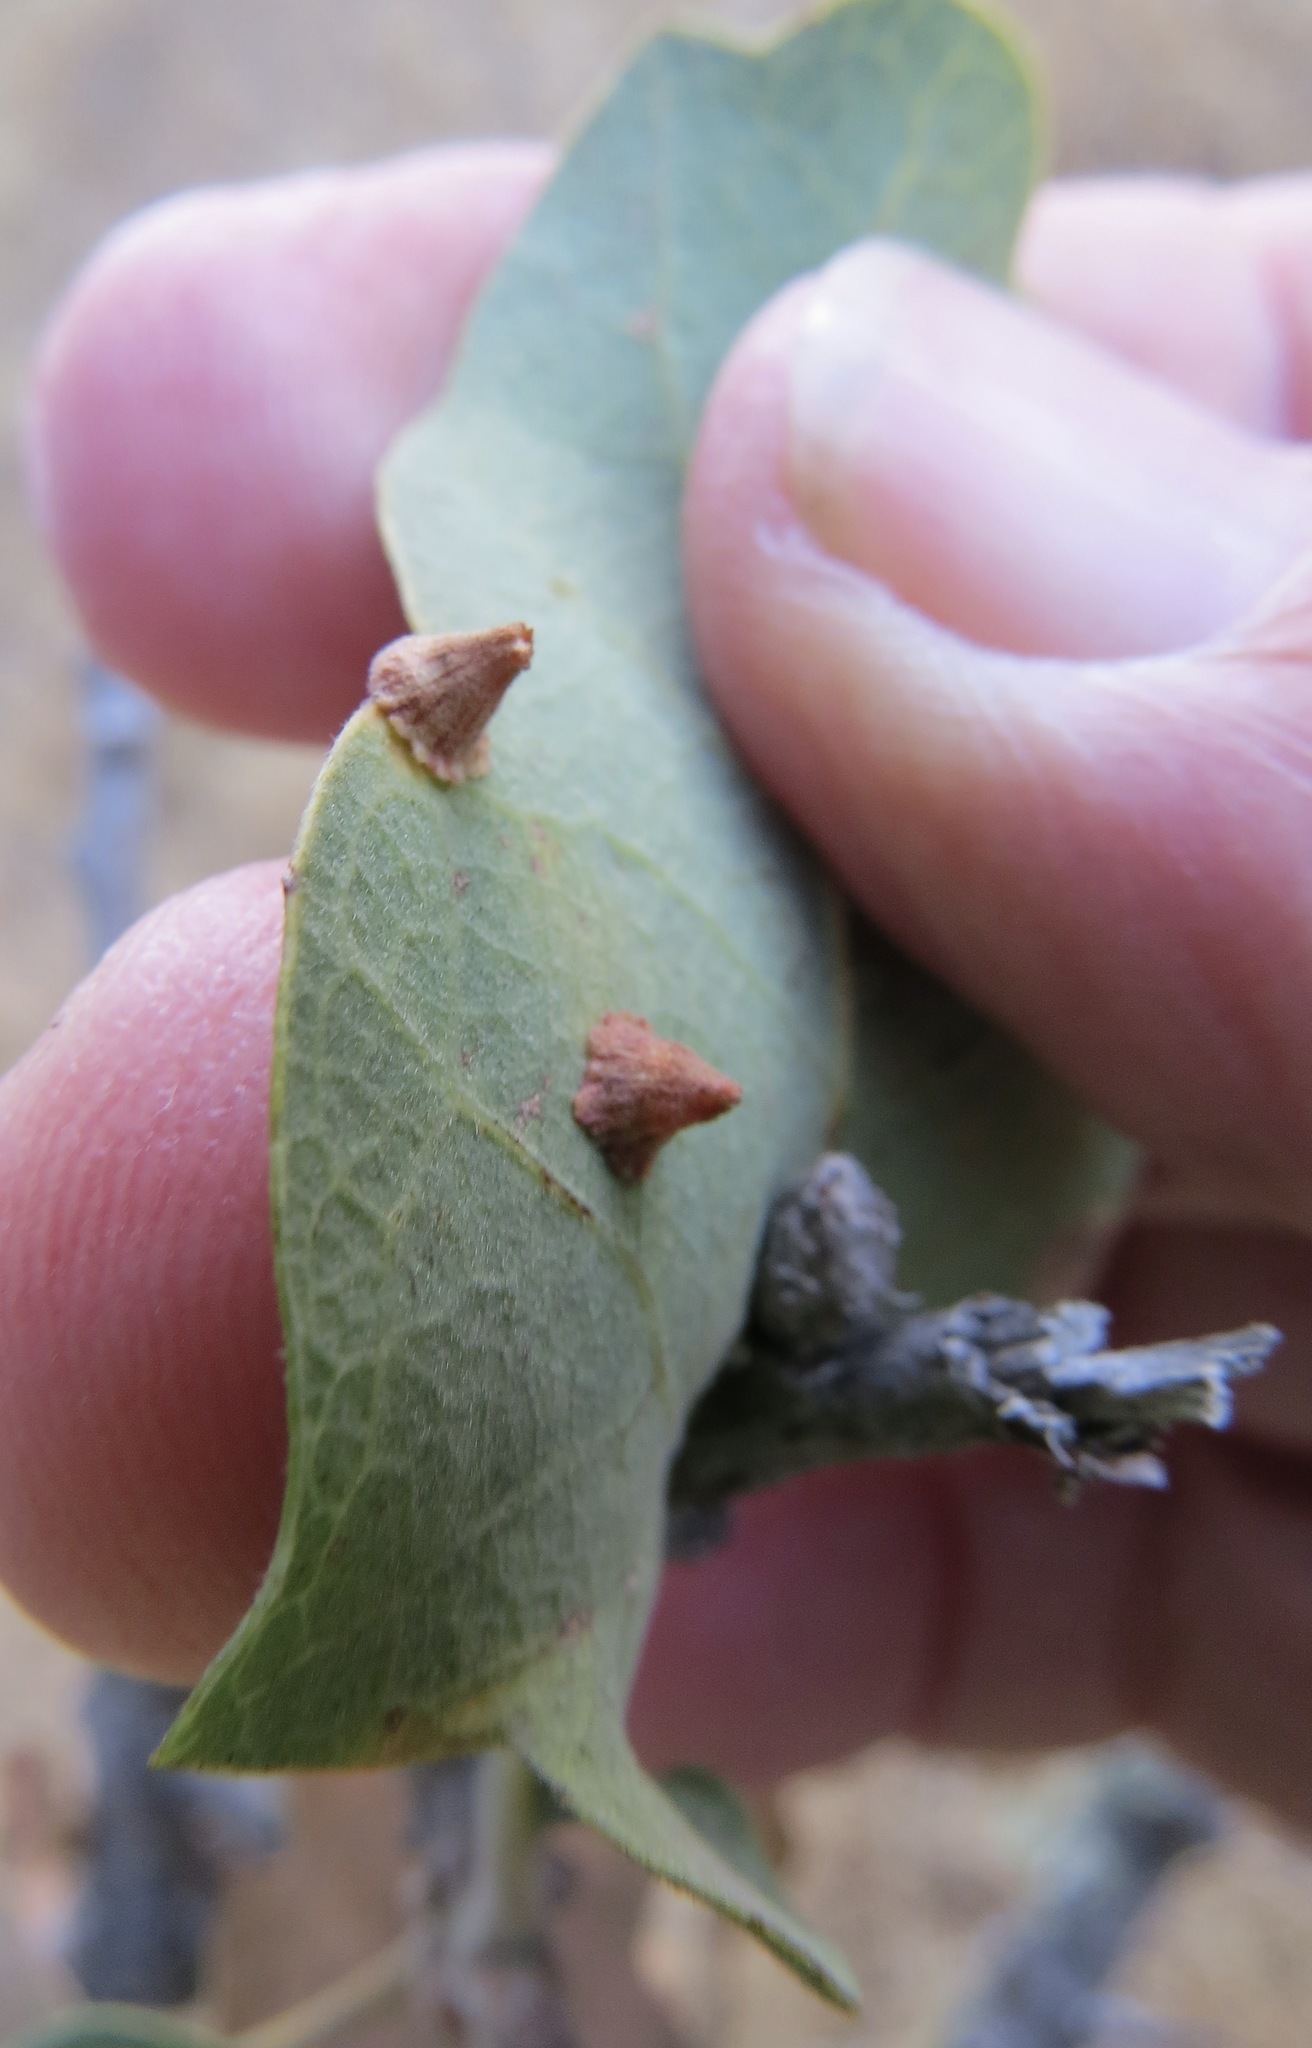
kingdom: Animalia
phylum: Arthropoda
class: Insecta
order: Hymenoptera
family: Cynipidae
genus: Andricus
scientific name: Andricus
